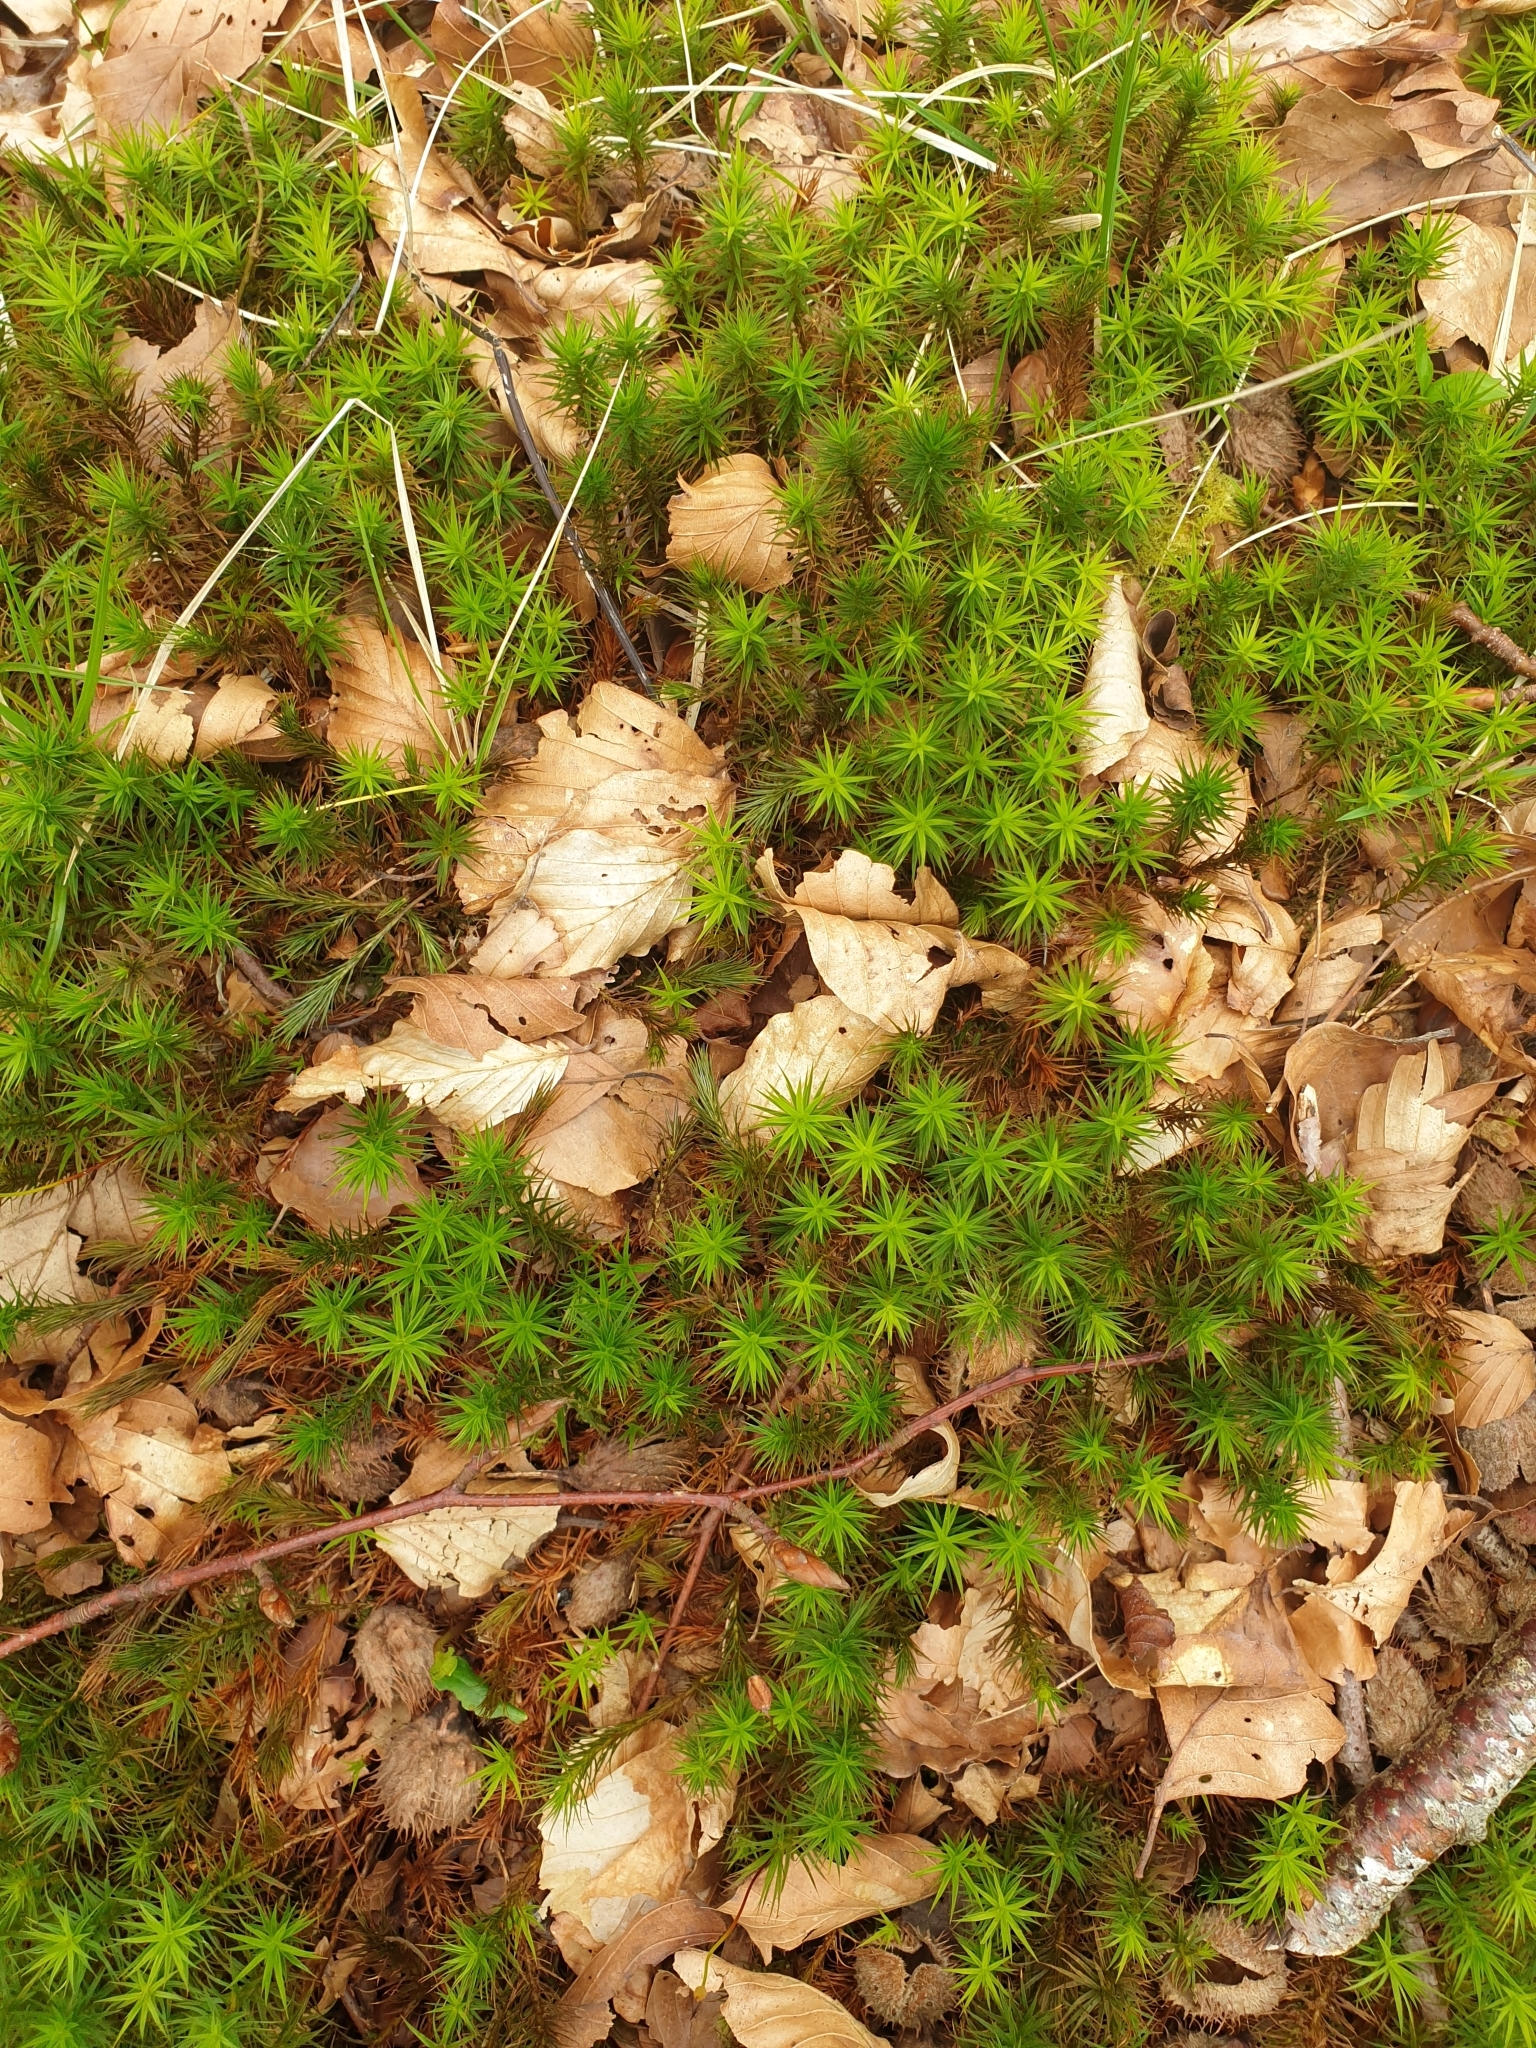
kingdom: Plantae
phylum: Bryophyta
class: Polytrichopsida
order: Polytrichales
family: Polytrichaceae
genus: Polytrichum
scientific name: Polytrichum formosum
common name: Bank haircap moss
